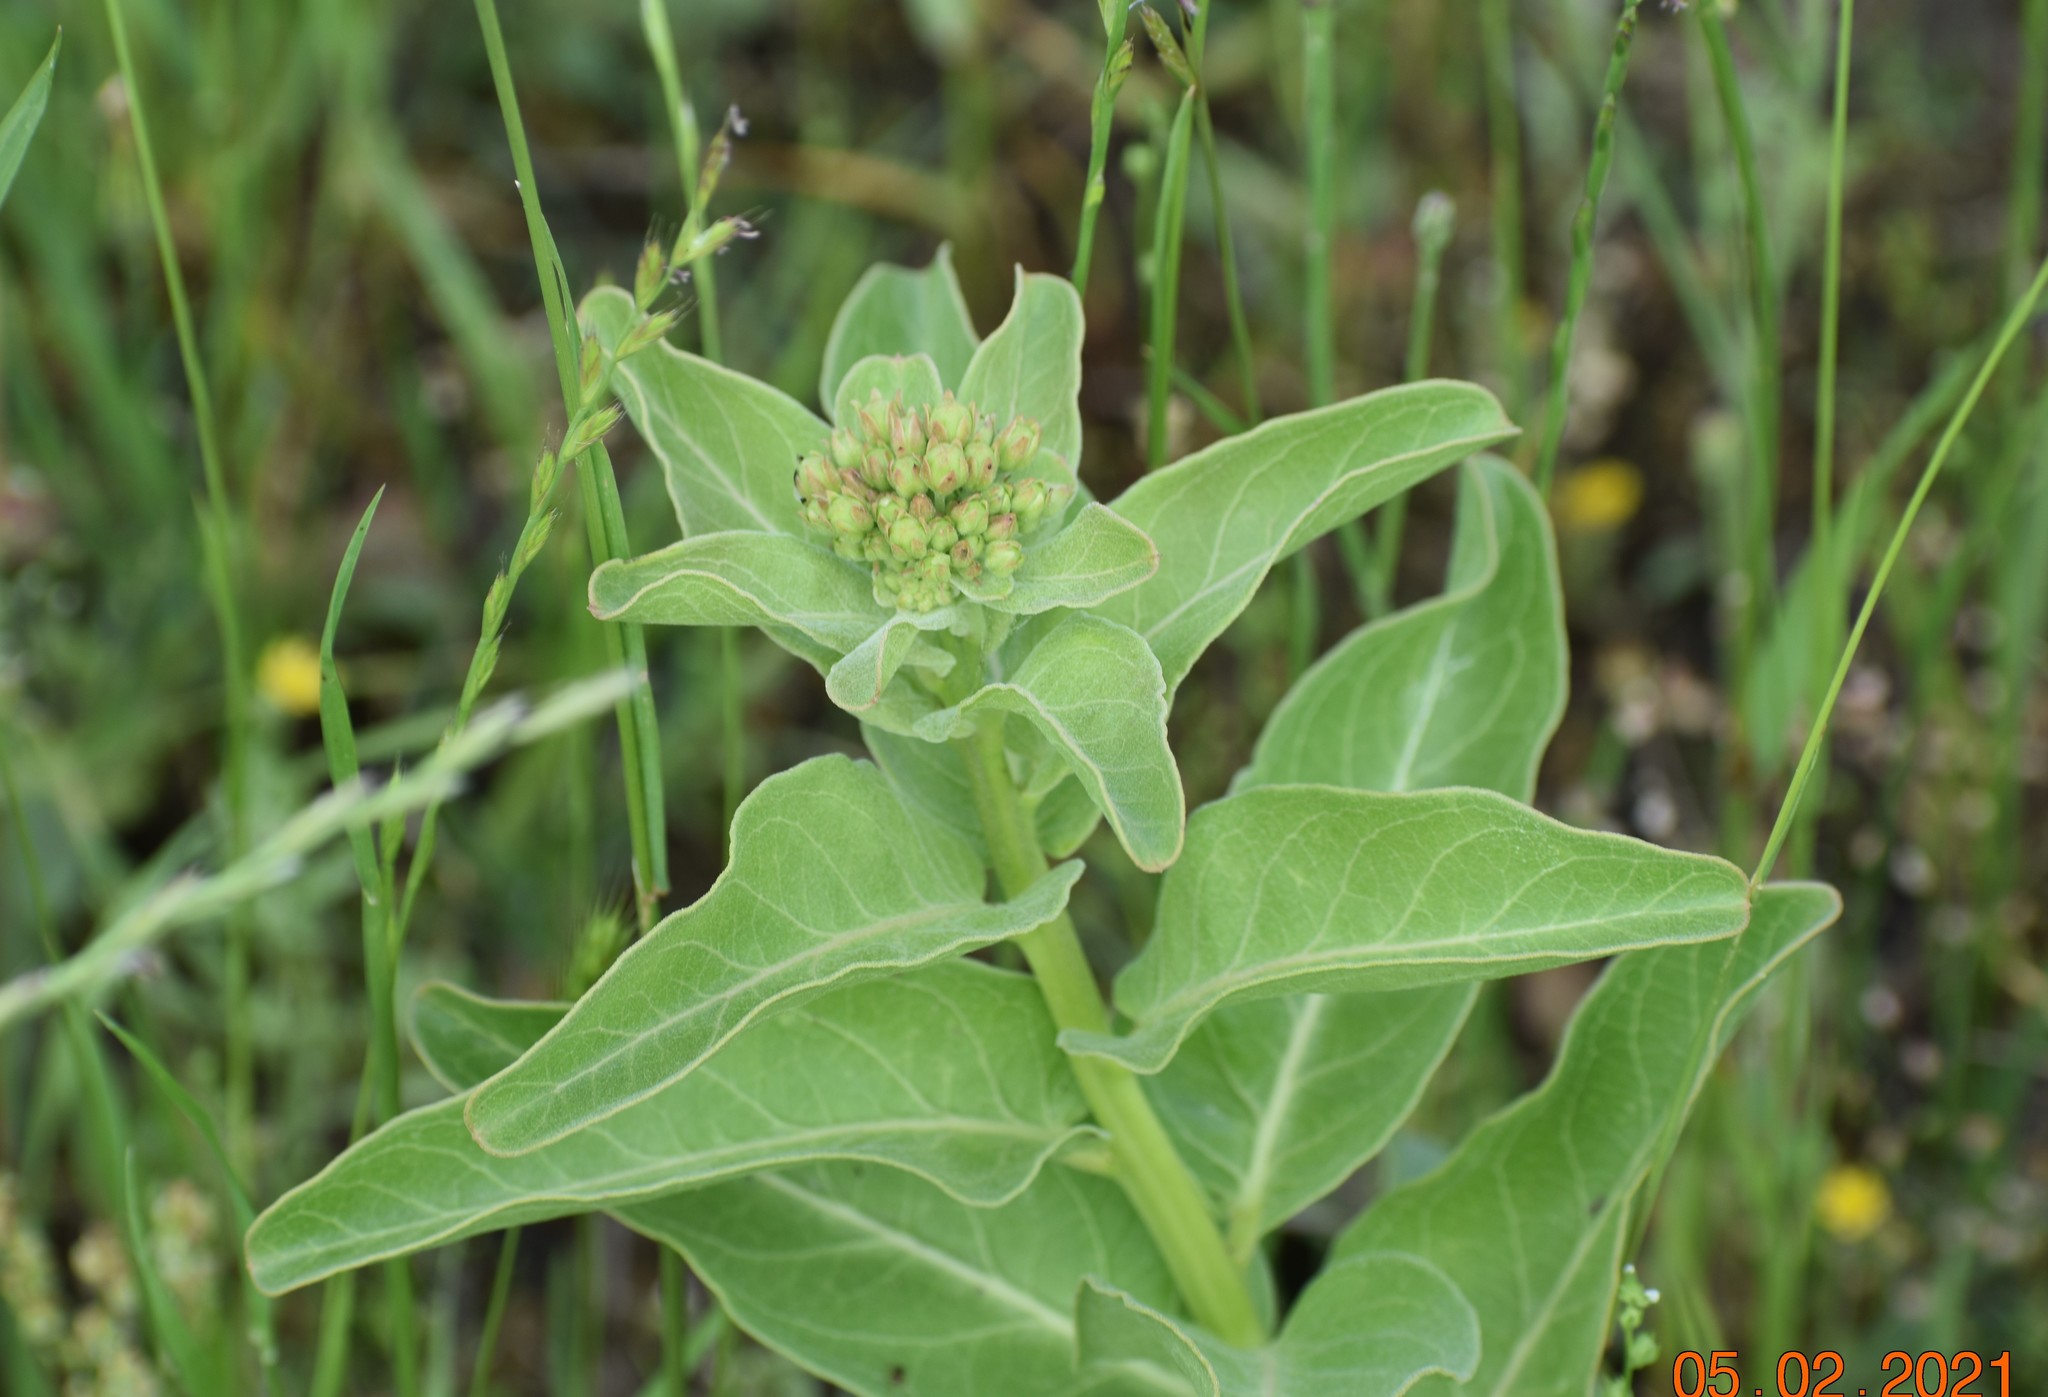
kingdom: Plantae
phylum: Tracheophyta
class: Magnoliopsida
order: Gentianales
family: Apocynaceae
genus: Asclepias
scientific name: Asclepias viridis
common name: Antelope-horns
